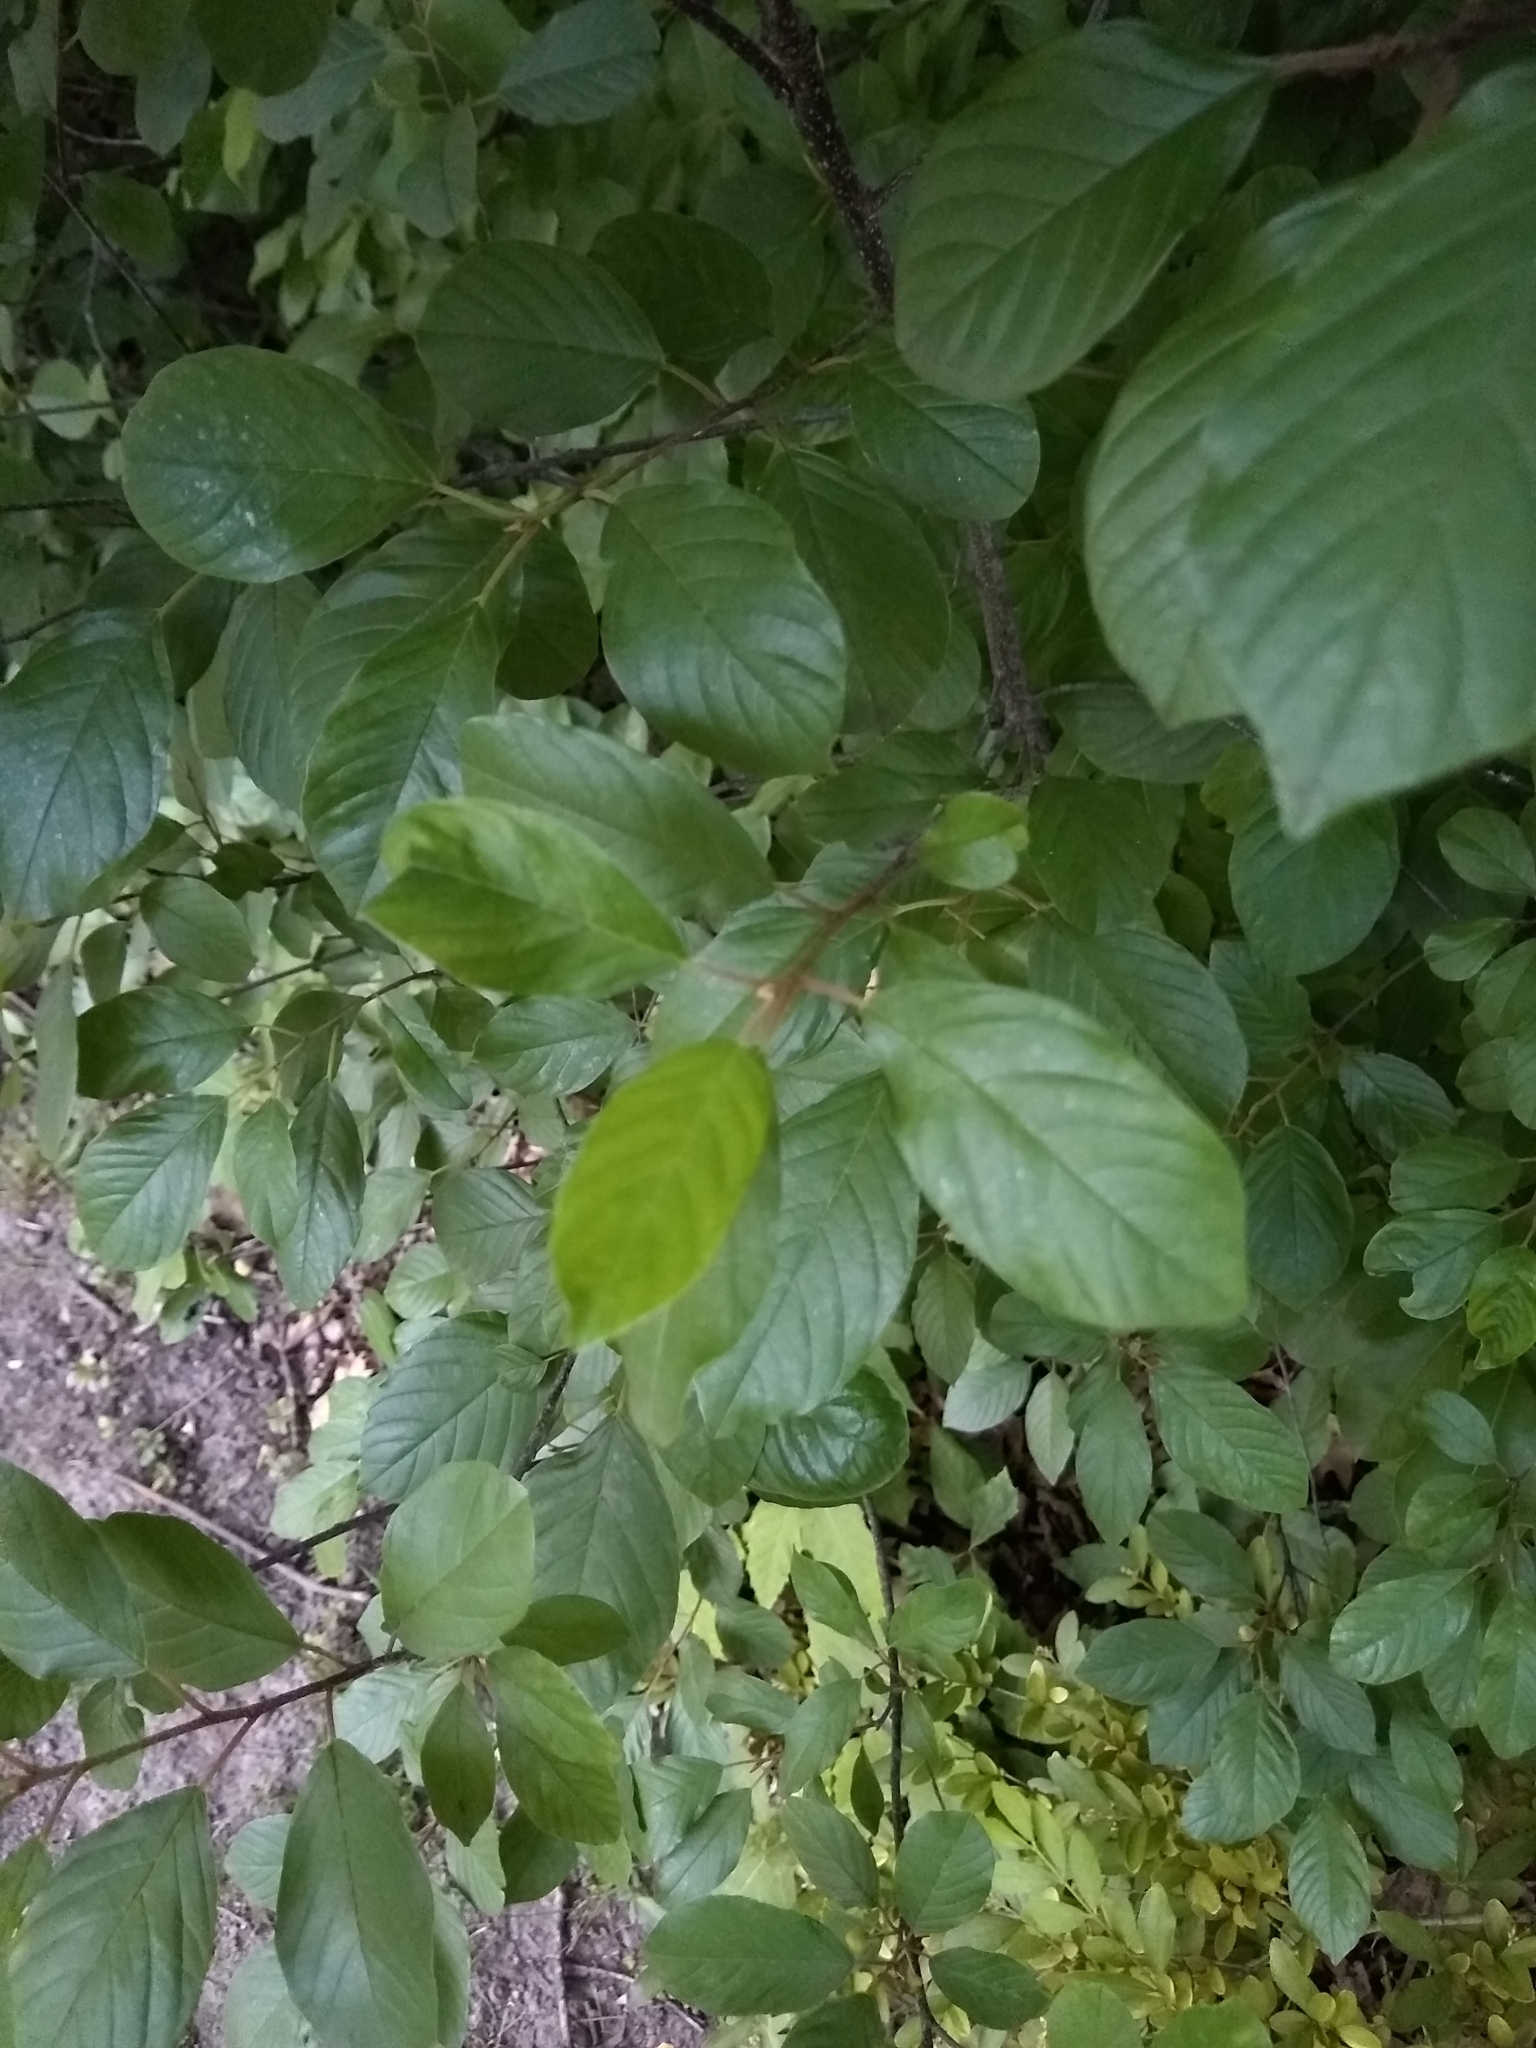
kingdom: Plantae
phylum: Tracheophyta
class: Magnoliopsida
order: Sapindales
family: Anacardiaceae
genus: Toxicodendron
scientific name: Toxicodendron radicans
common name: Poison ivy
